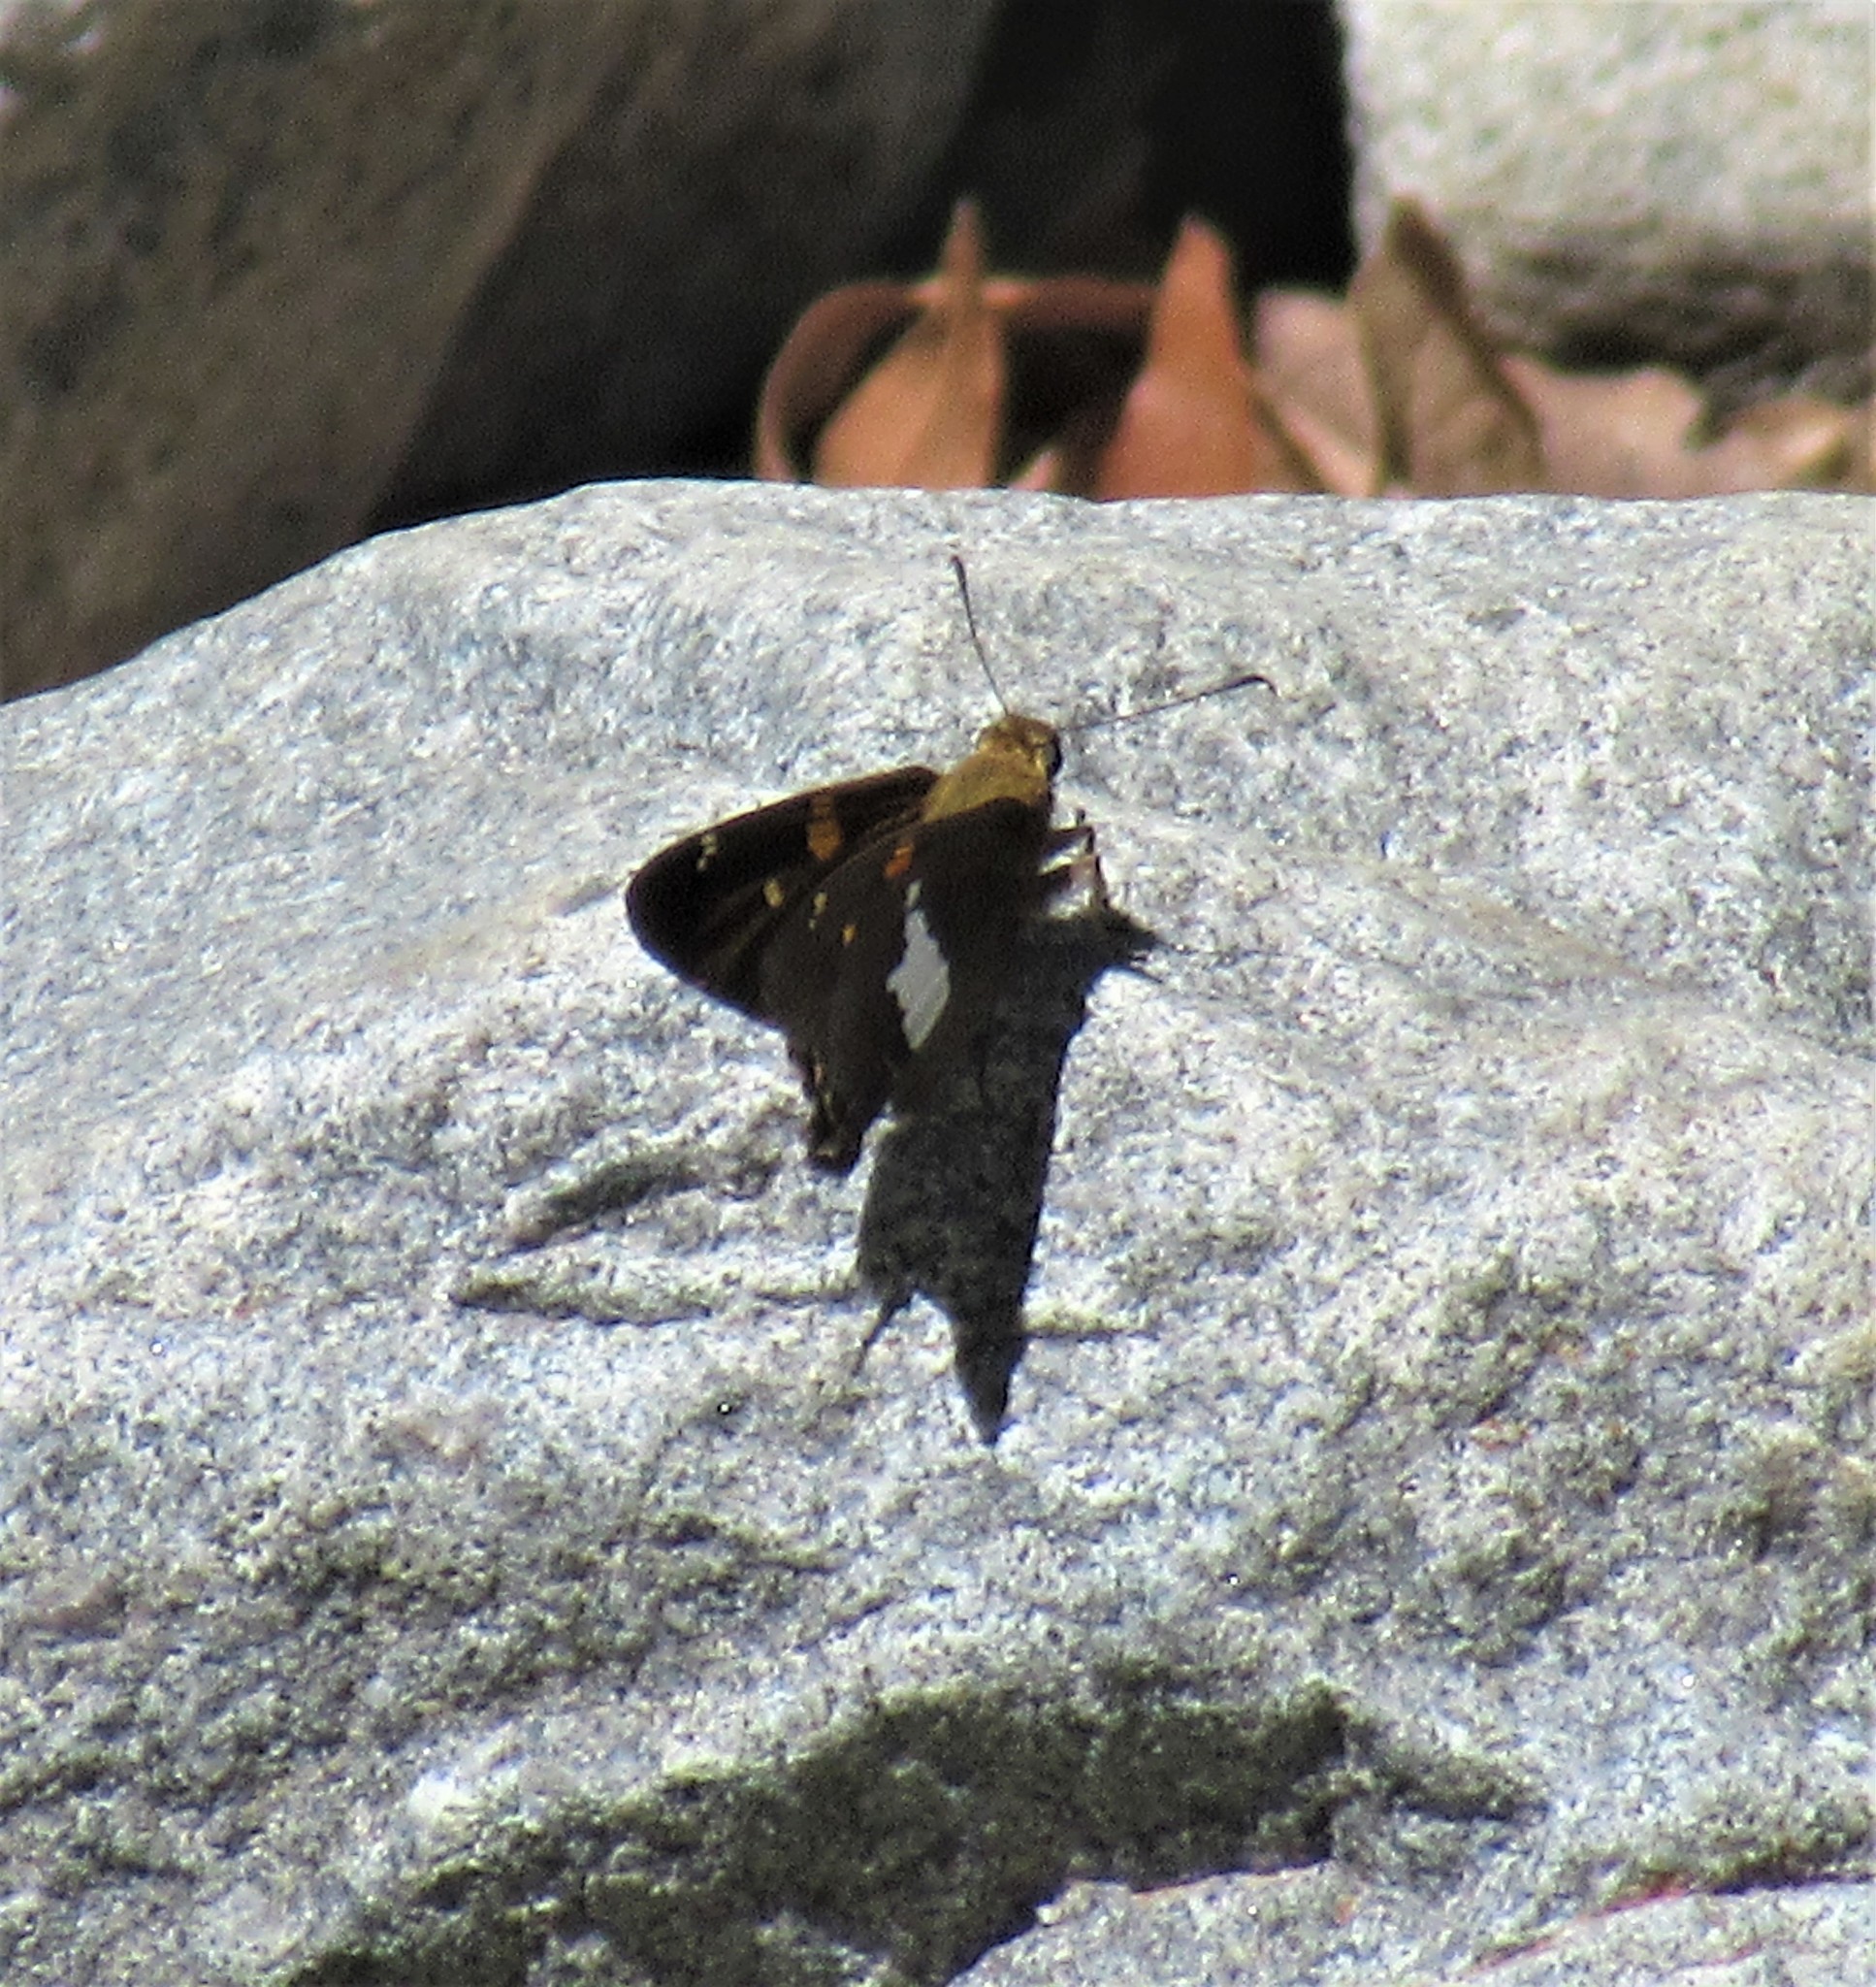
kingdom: Animalia
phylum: Arthropoda
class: Insecta
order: Lepidoptera
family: Hesperiidae
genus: Epargyreus
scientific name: Epargyreus clarus
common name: Silver-spotted skipper
